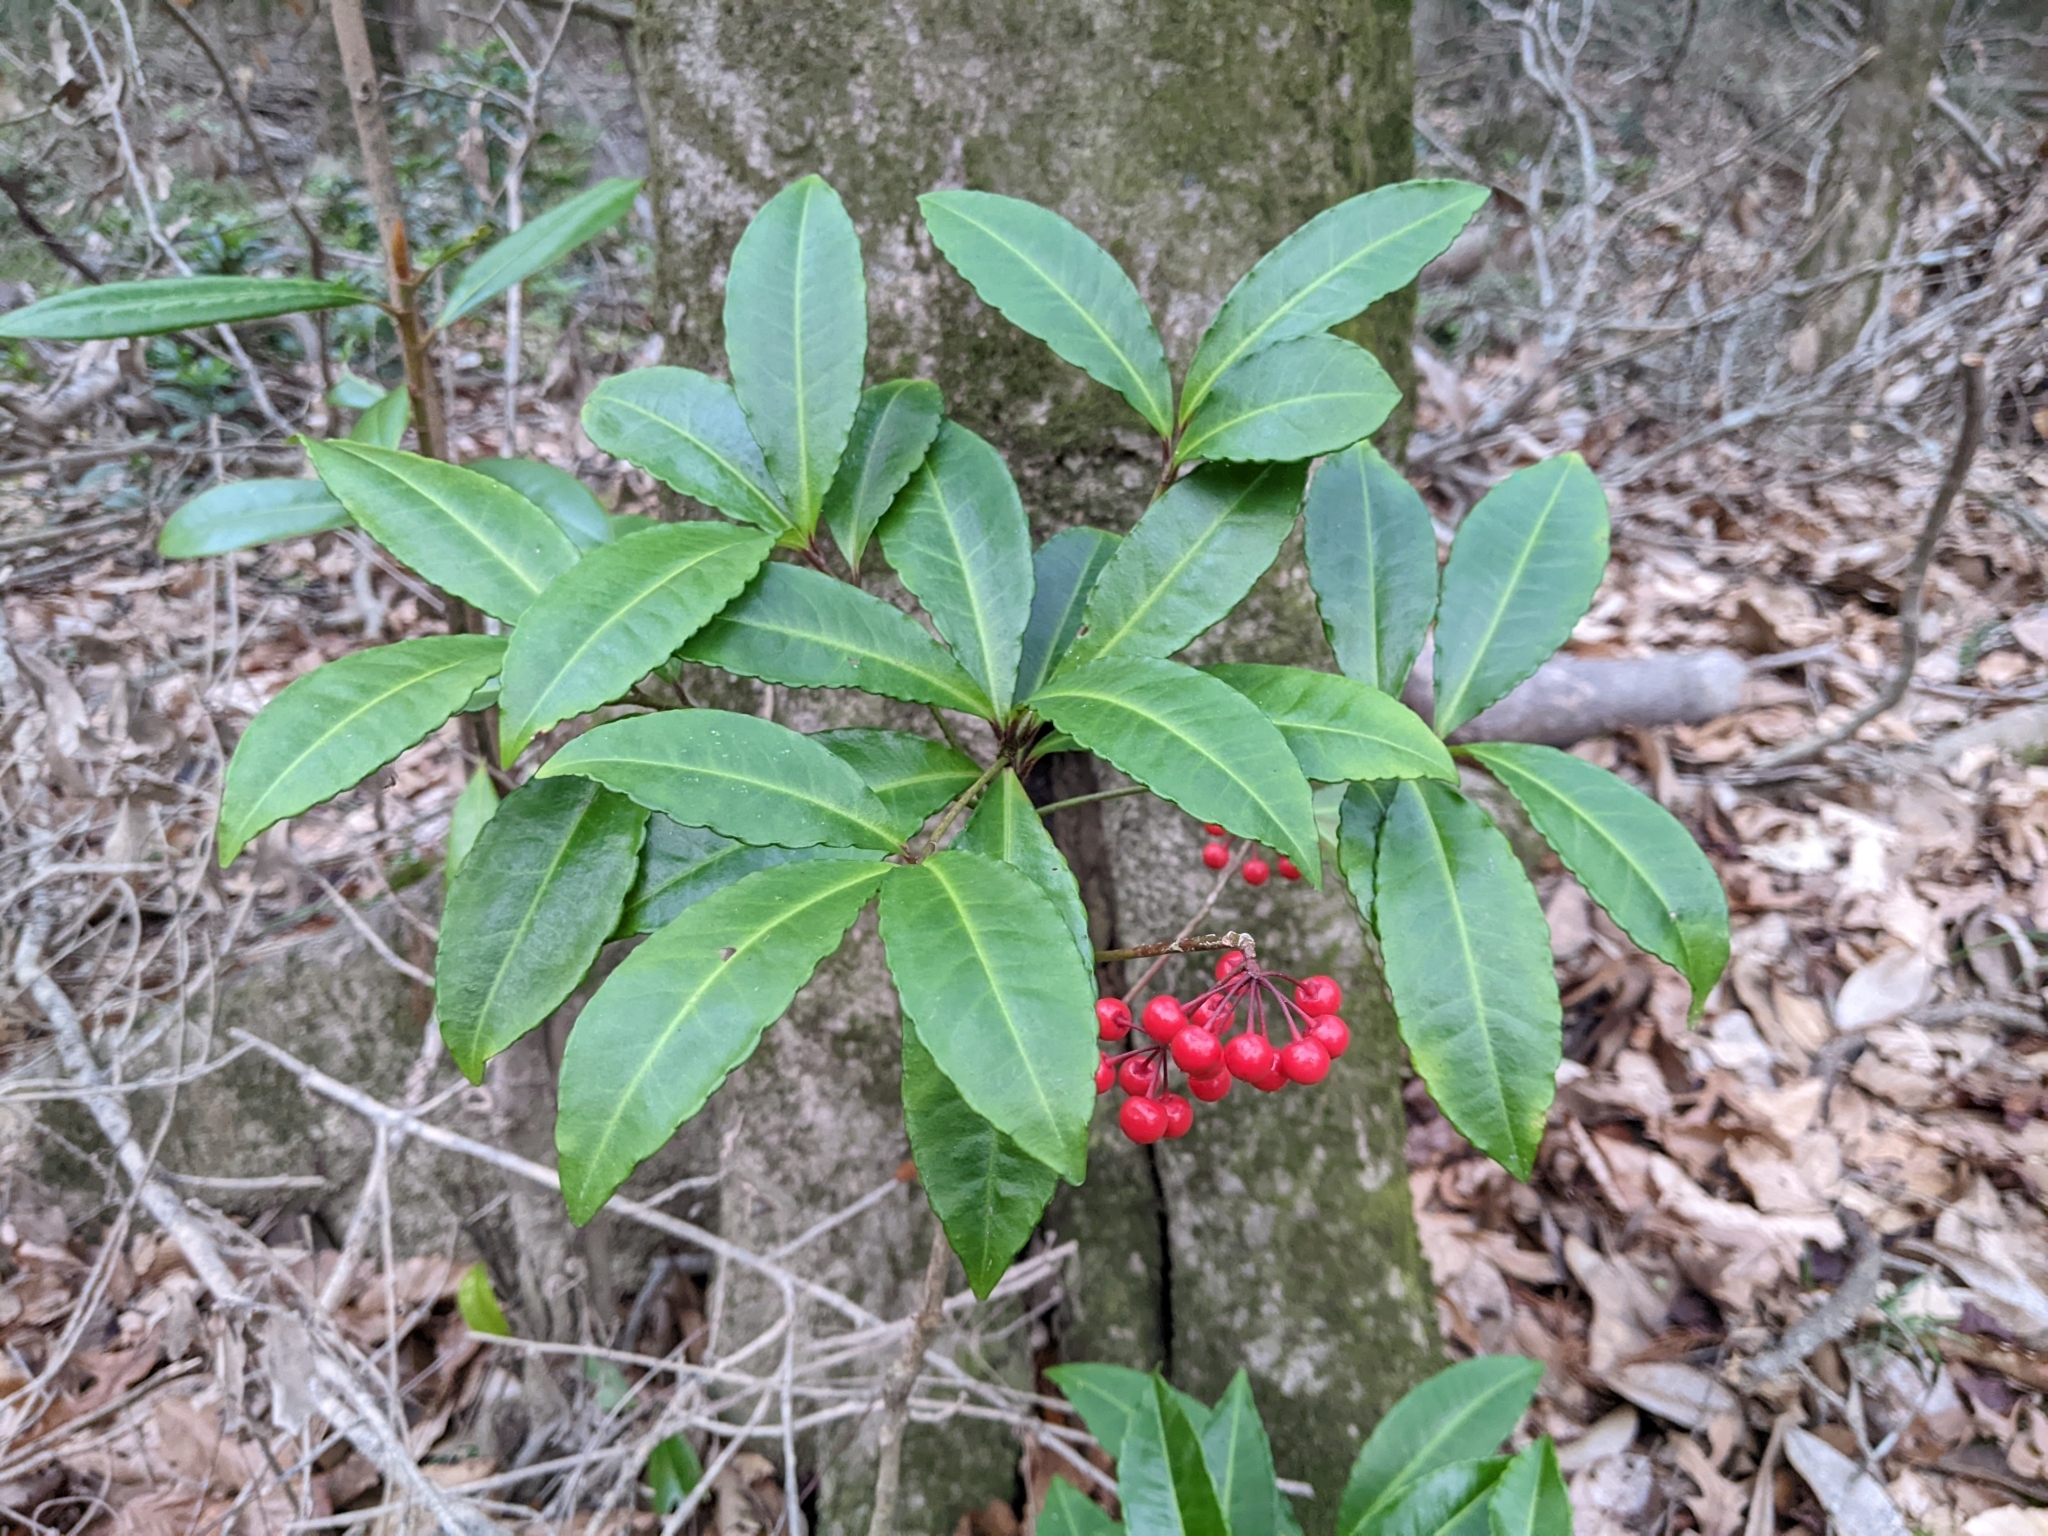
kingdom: Plantae
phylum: Tracheophyta
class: Magnoliopsida
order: Ericales
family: Primulaceae
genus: Ardisia
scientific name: Ardisia crenata
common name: Hen's eyes
